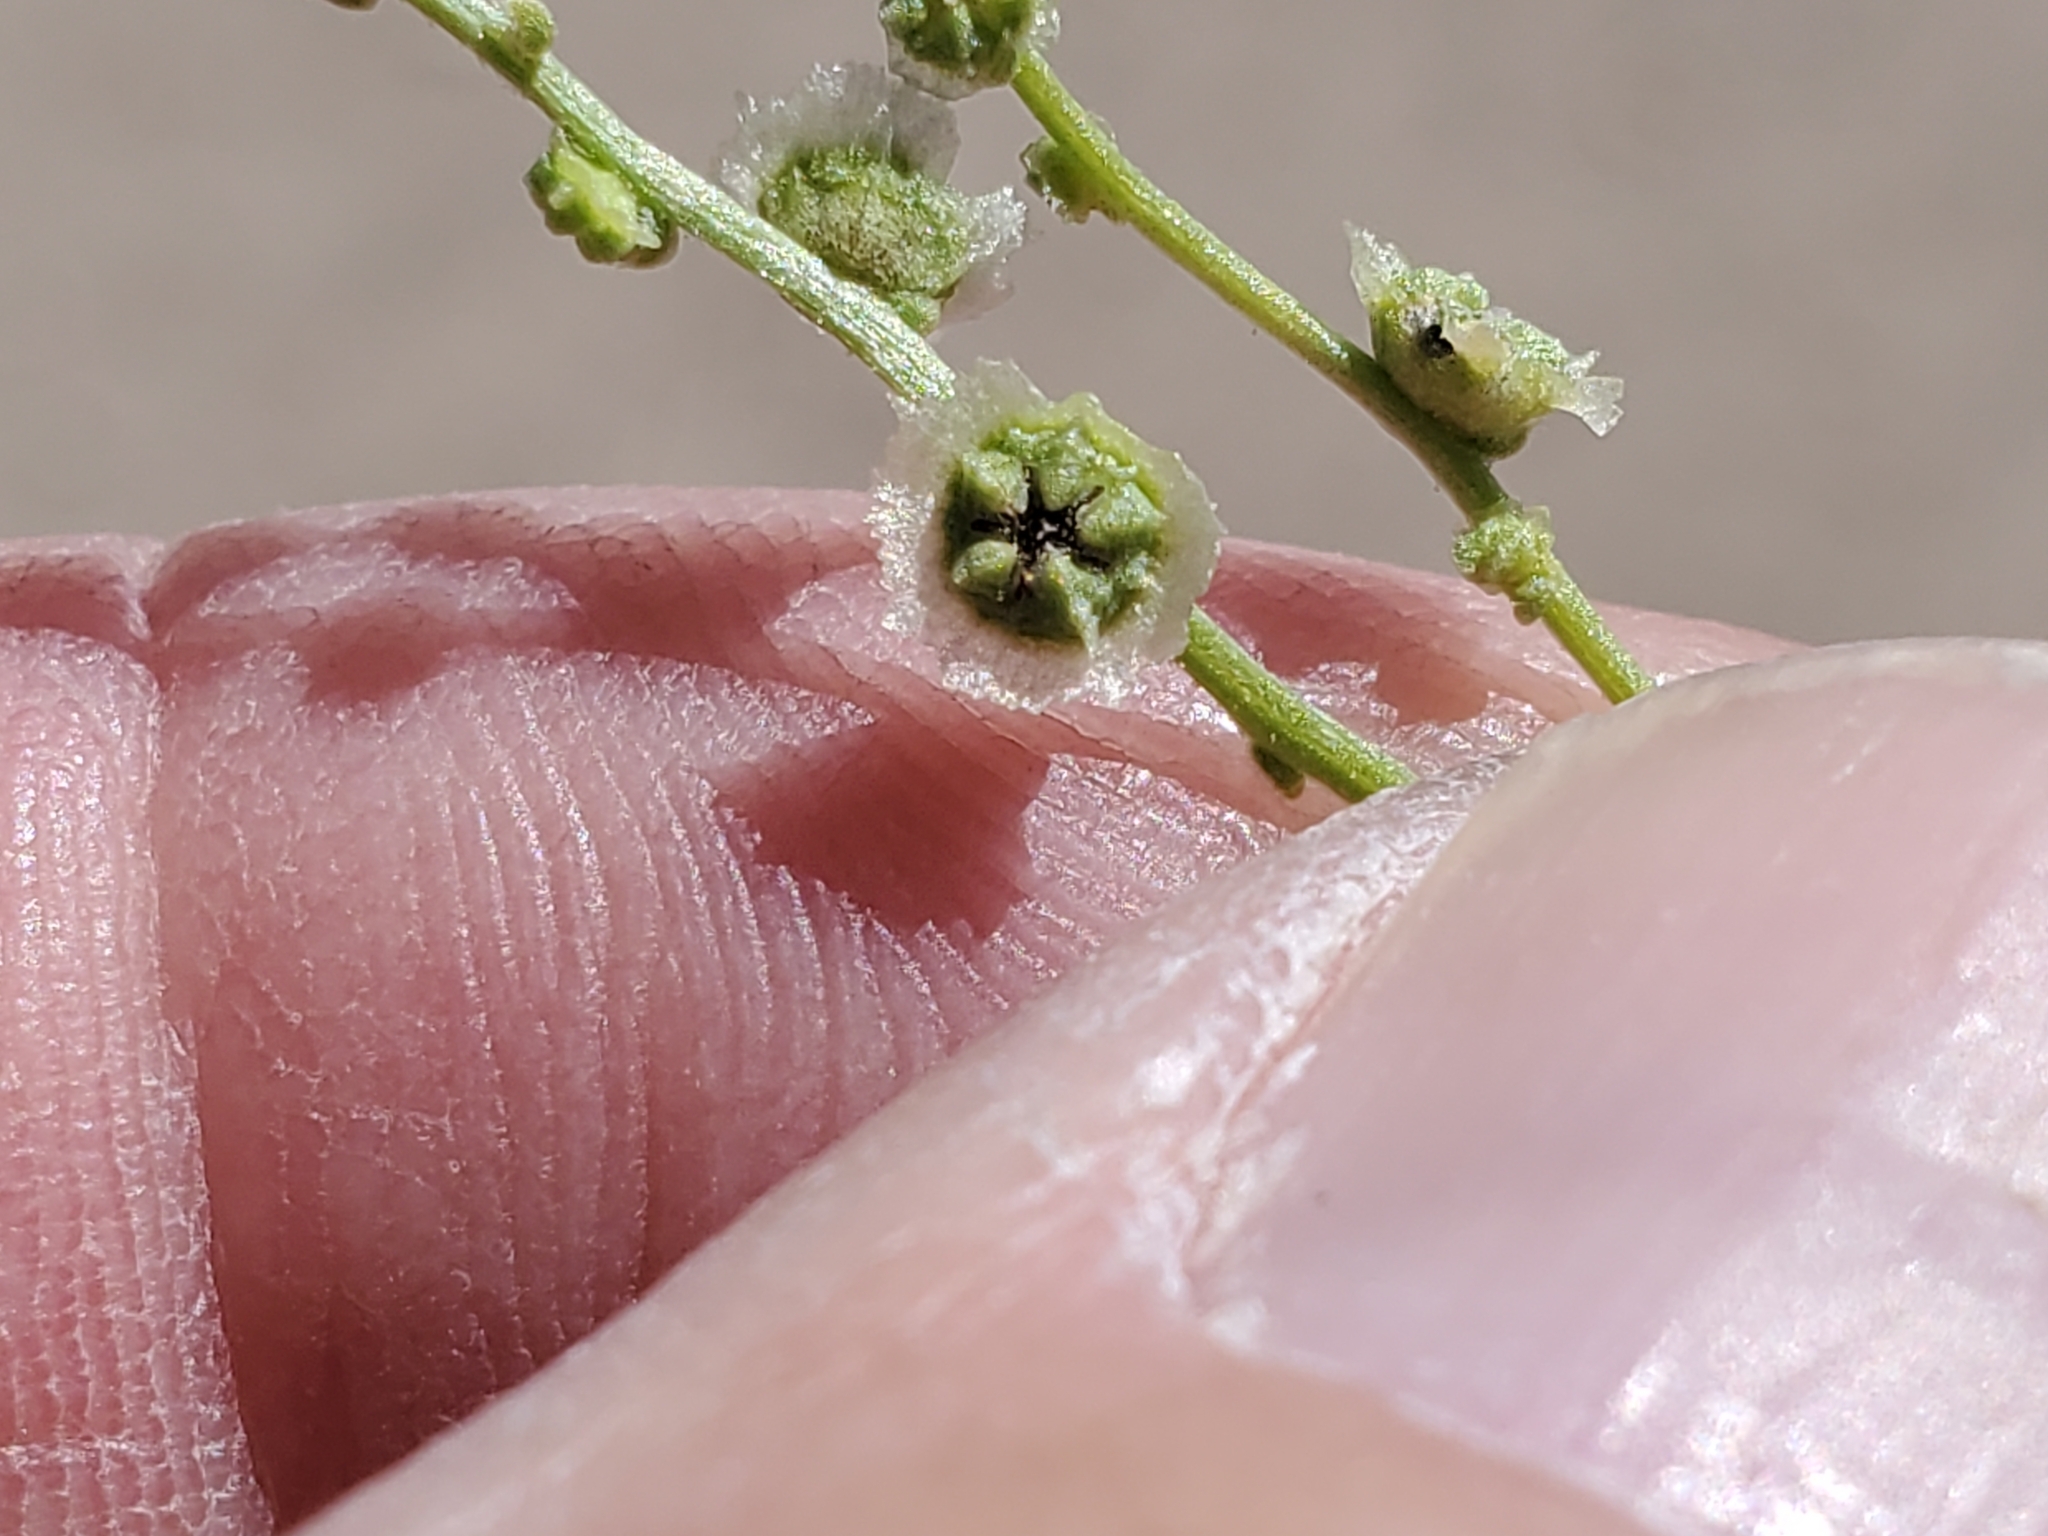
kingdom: Plantae
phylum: Tracheophyta
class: Magnoliopsida
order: Caryophyllales
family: Amaranthaceae
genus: Dysphania
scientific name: Dysphania atriplicifolia
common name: Plains tumbleweed
